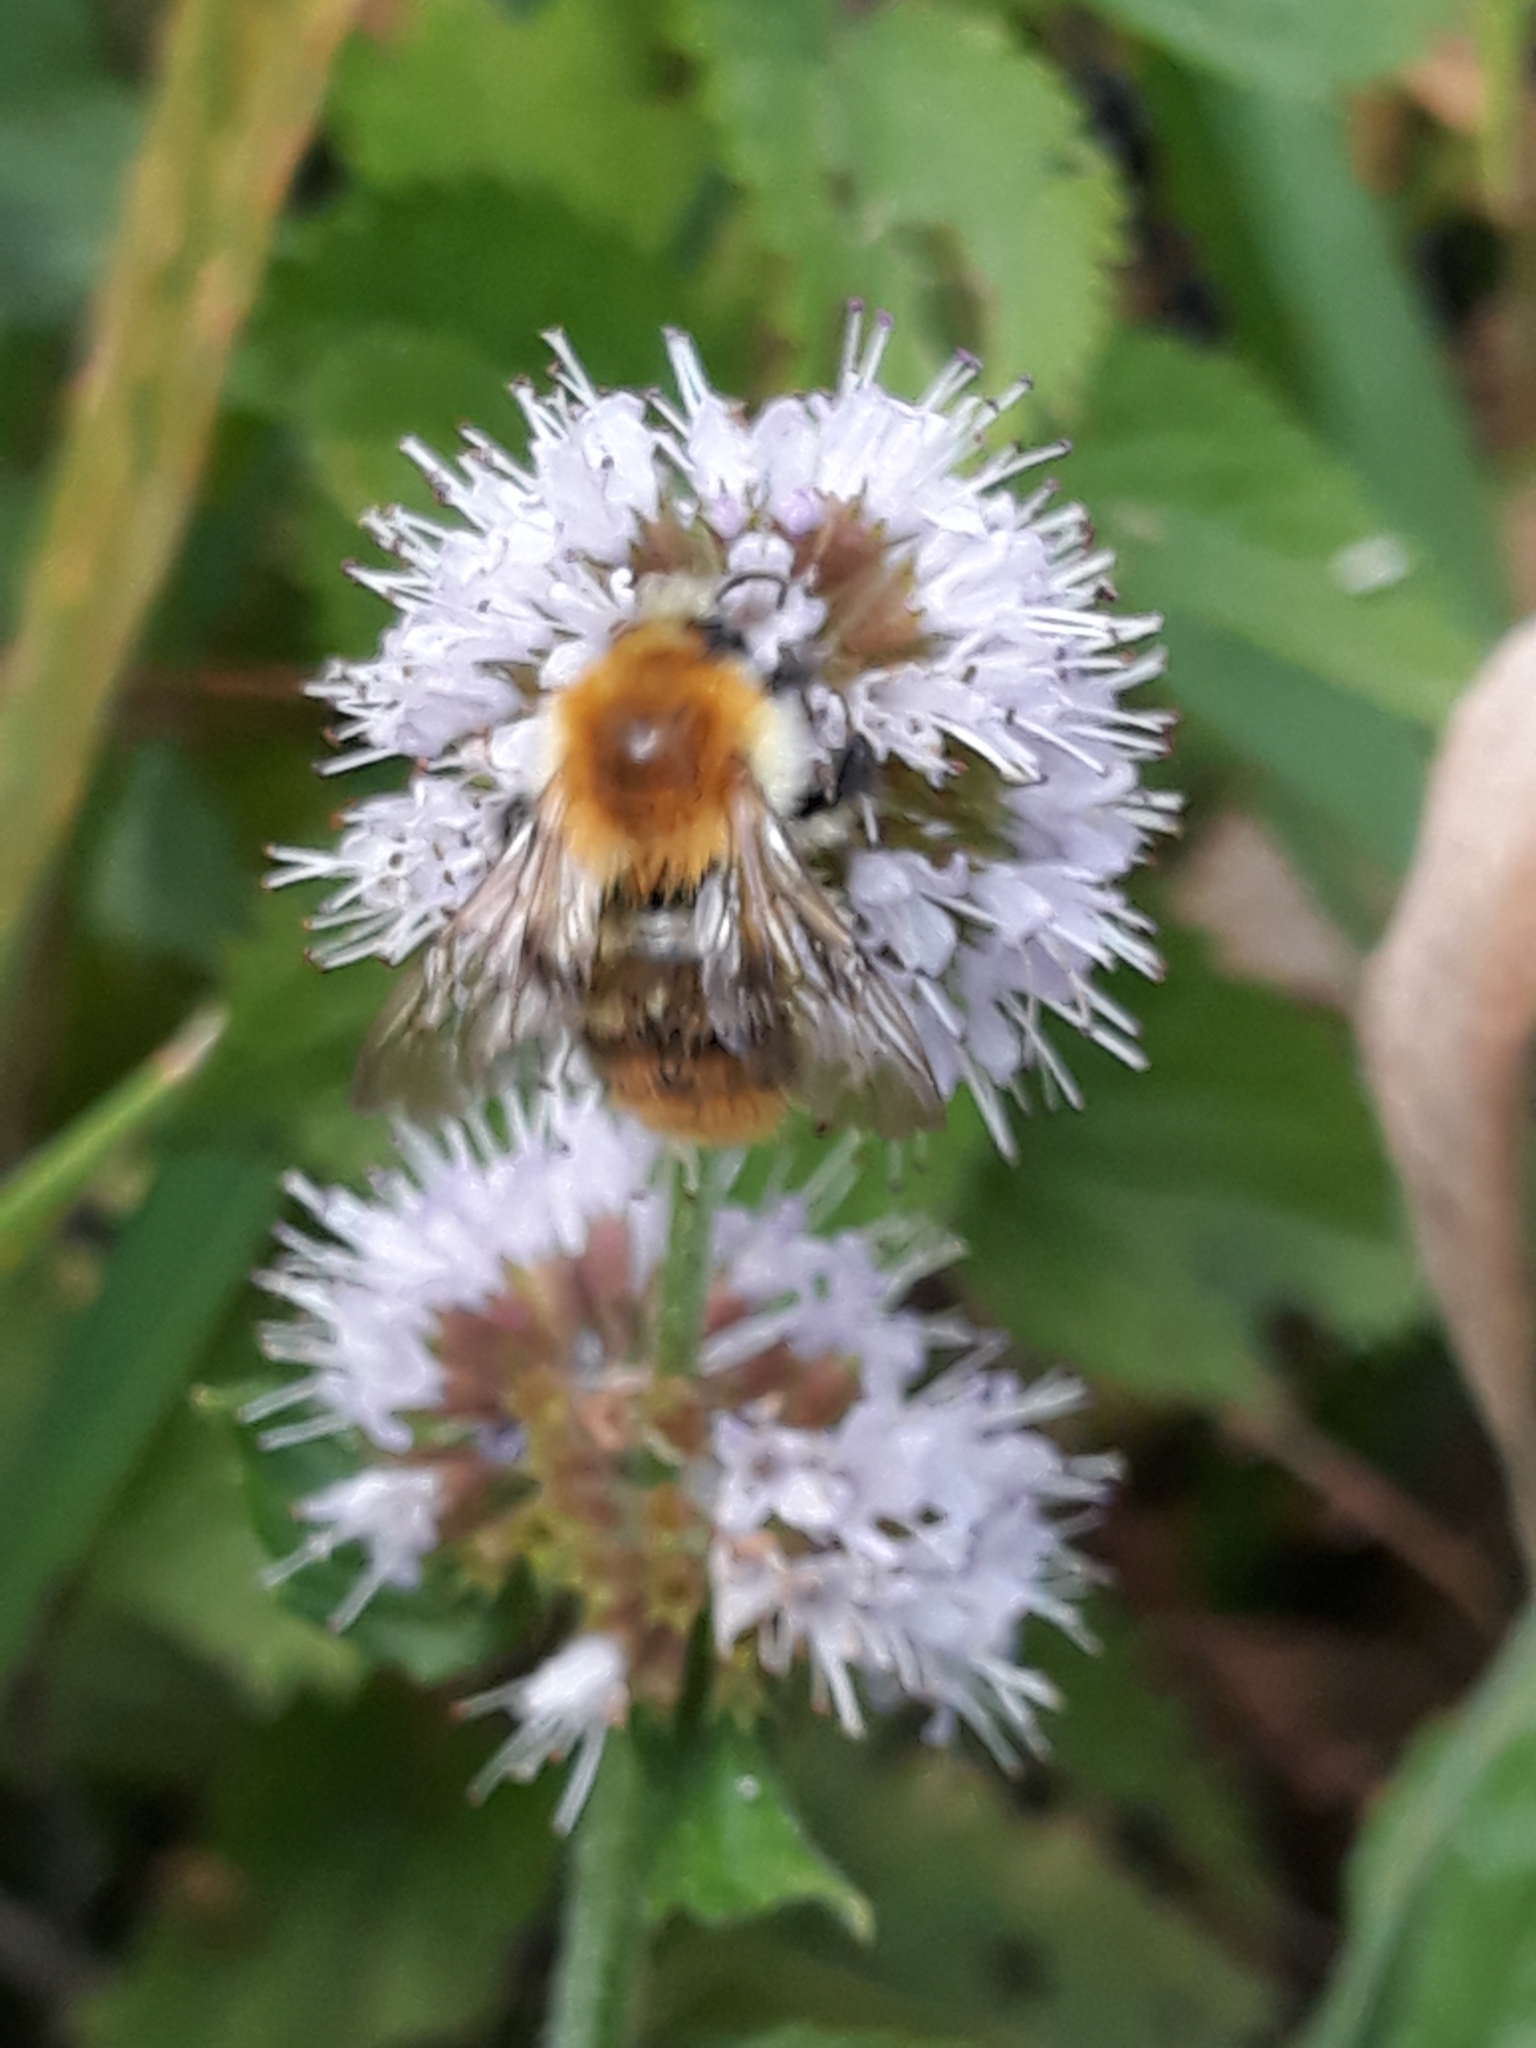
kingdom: Animalia
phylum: Arthropoda
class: Insecta
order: Hymenoptera
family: Apidae
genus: Bombus
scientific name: Bombus pascuorum
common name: Common carder bee
